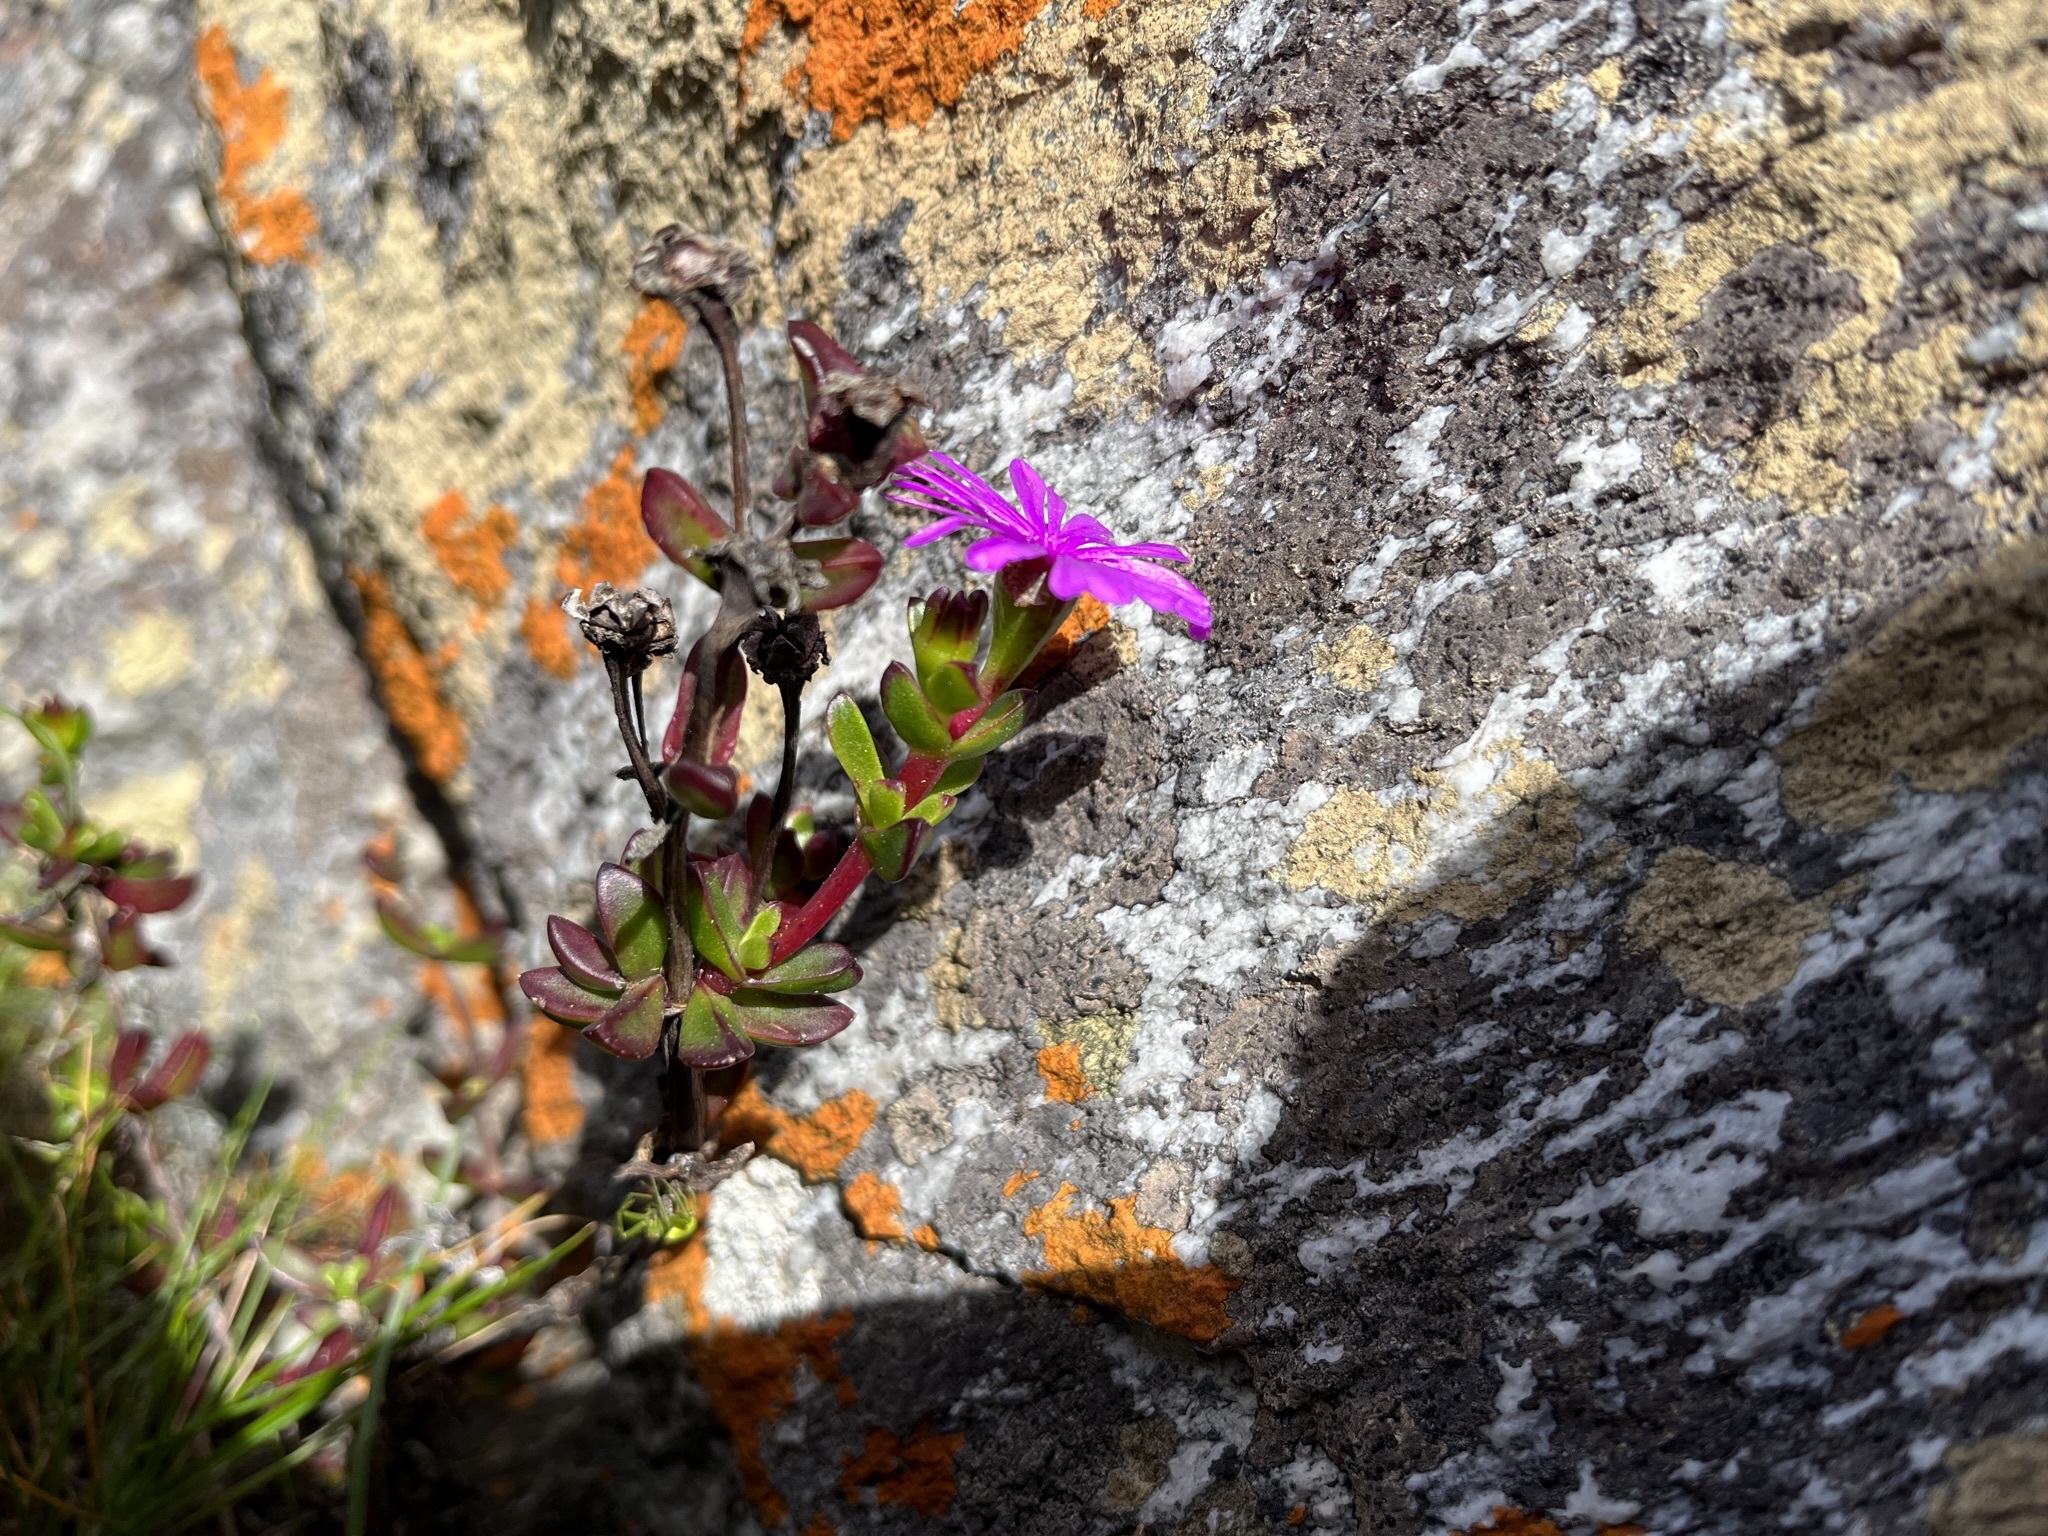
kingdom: Plantae
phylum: Tracheophyta
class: Magnoliopsida
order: Caryophyllales
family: Aizoaceae
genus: Erepsia
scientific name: Erepsia inclaudens
